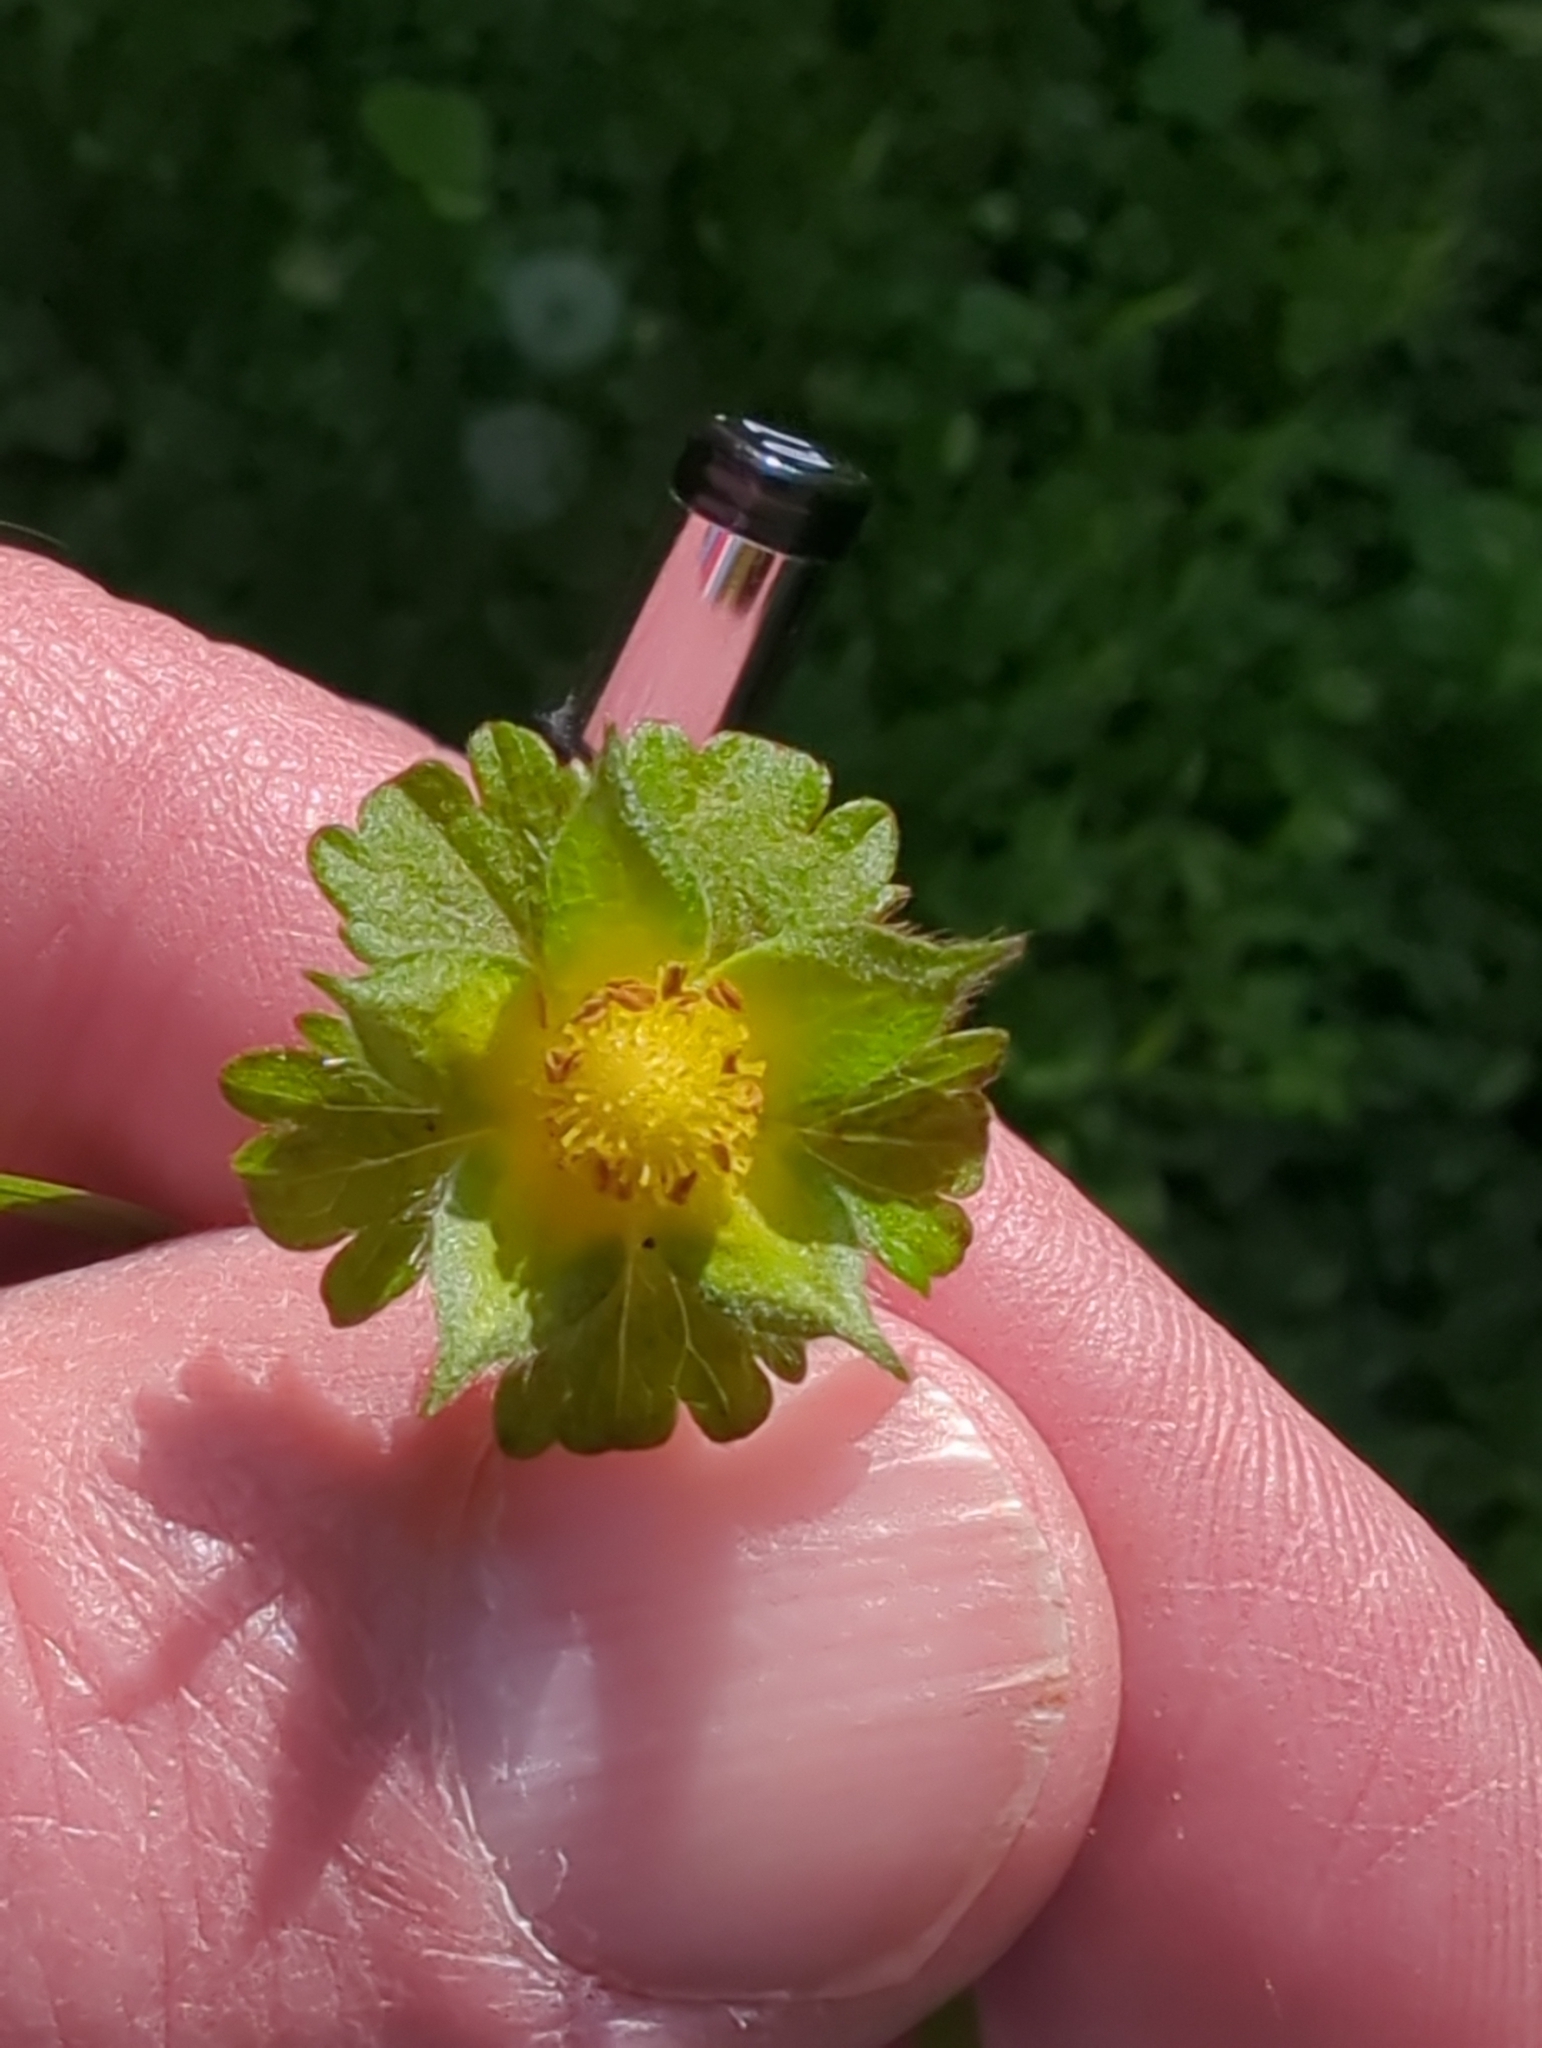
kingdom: Plantae
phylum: Tracheophyta
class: Magnoliopsida
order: Rosales
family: Rosaceae
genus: Potentilla
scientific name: Potentilla indica
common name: Yellow-flowered strawberry
